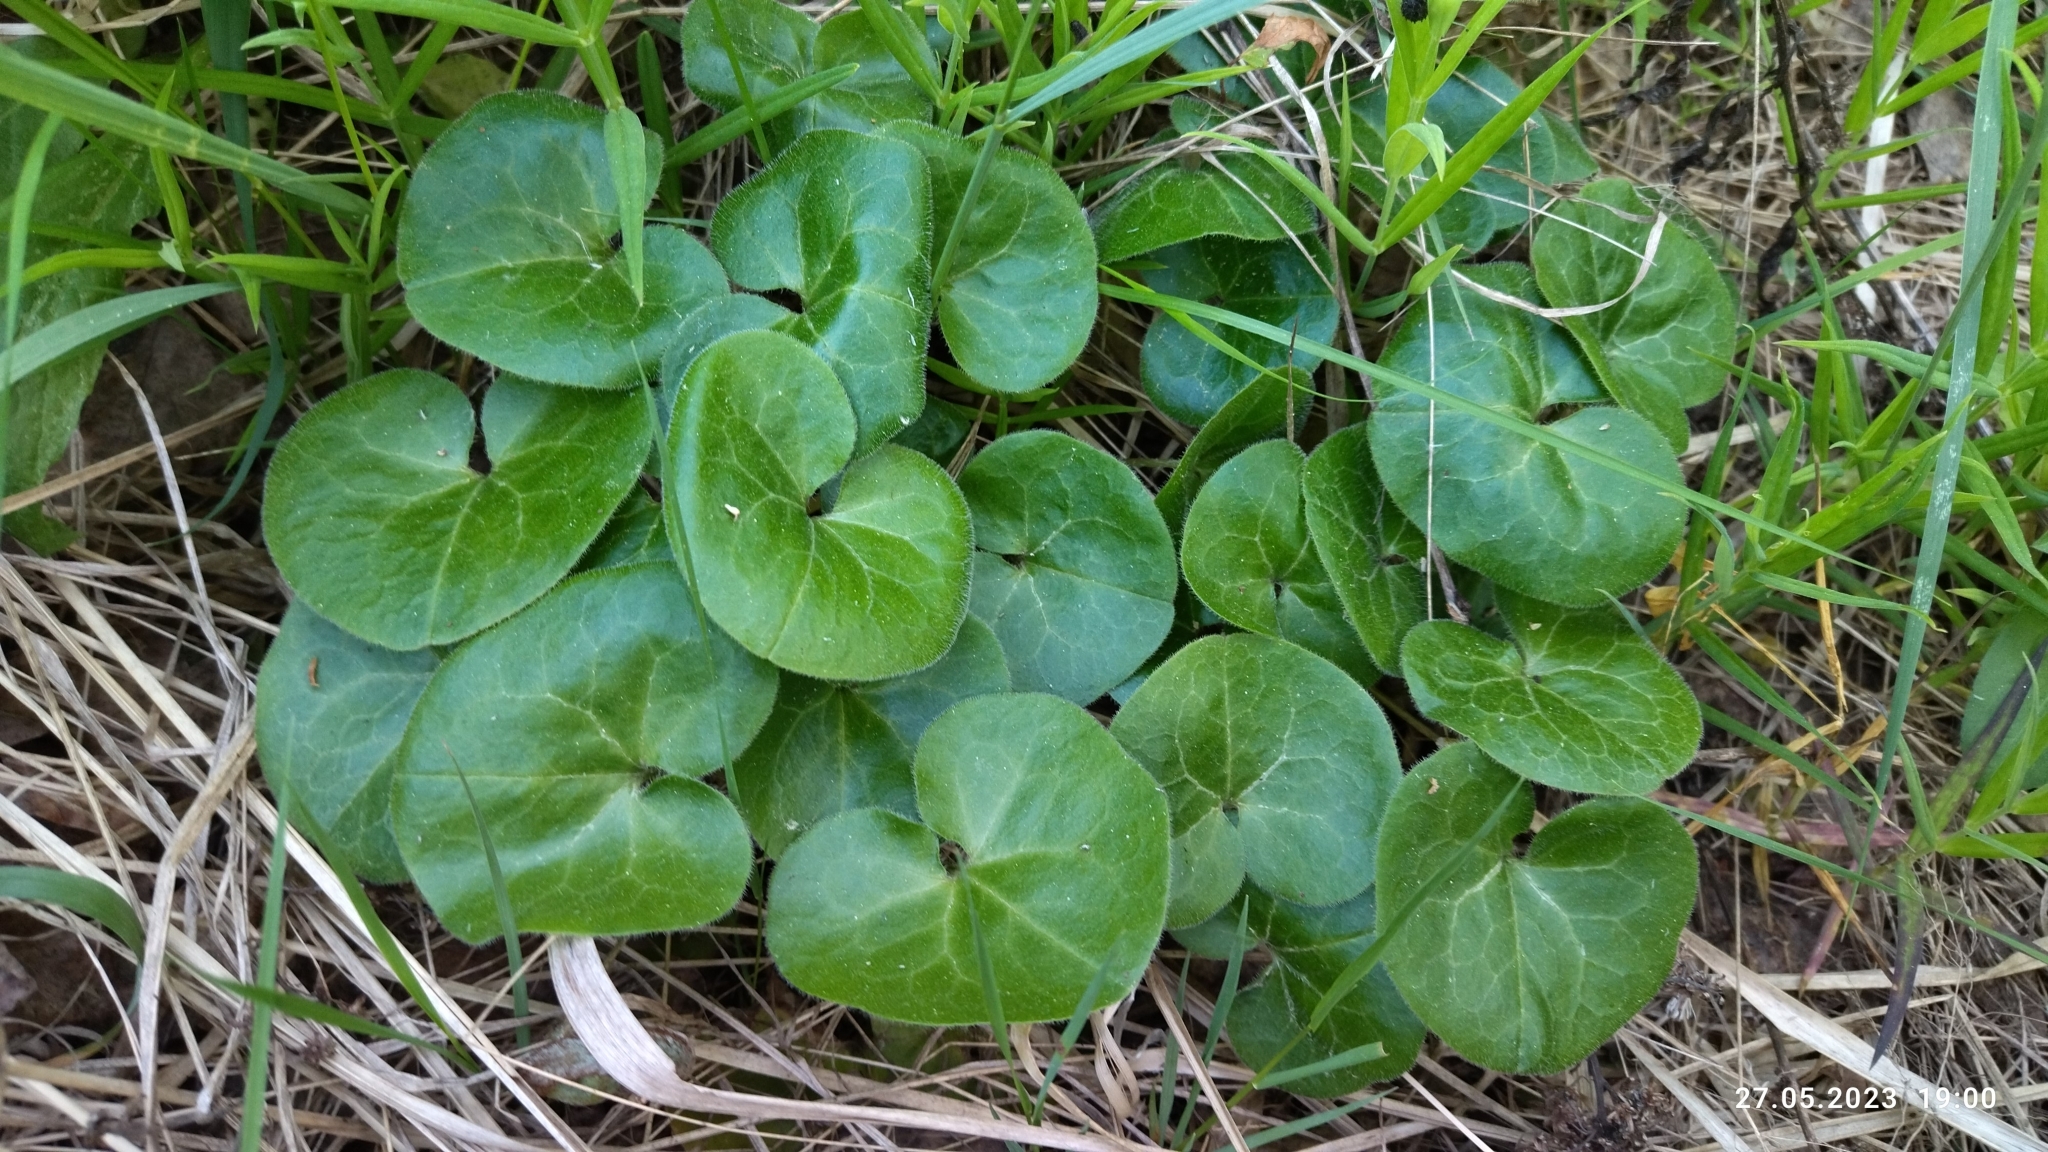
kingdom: Plantae
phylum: Tracheophyta
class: Magnoliopsida
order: Piperales
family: Aristolochiaceae
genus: Asarum
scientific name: Asarum europaeum
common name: Asarabacca
